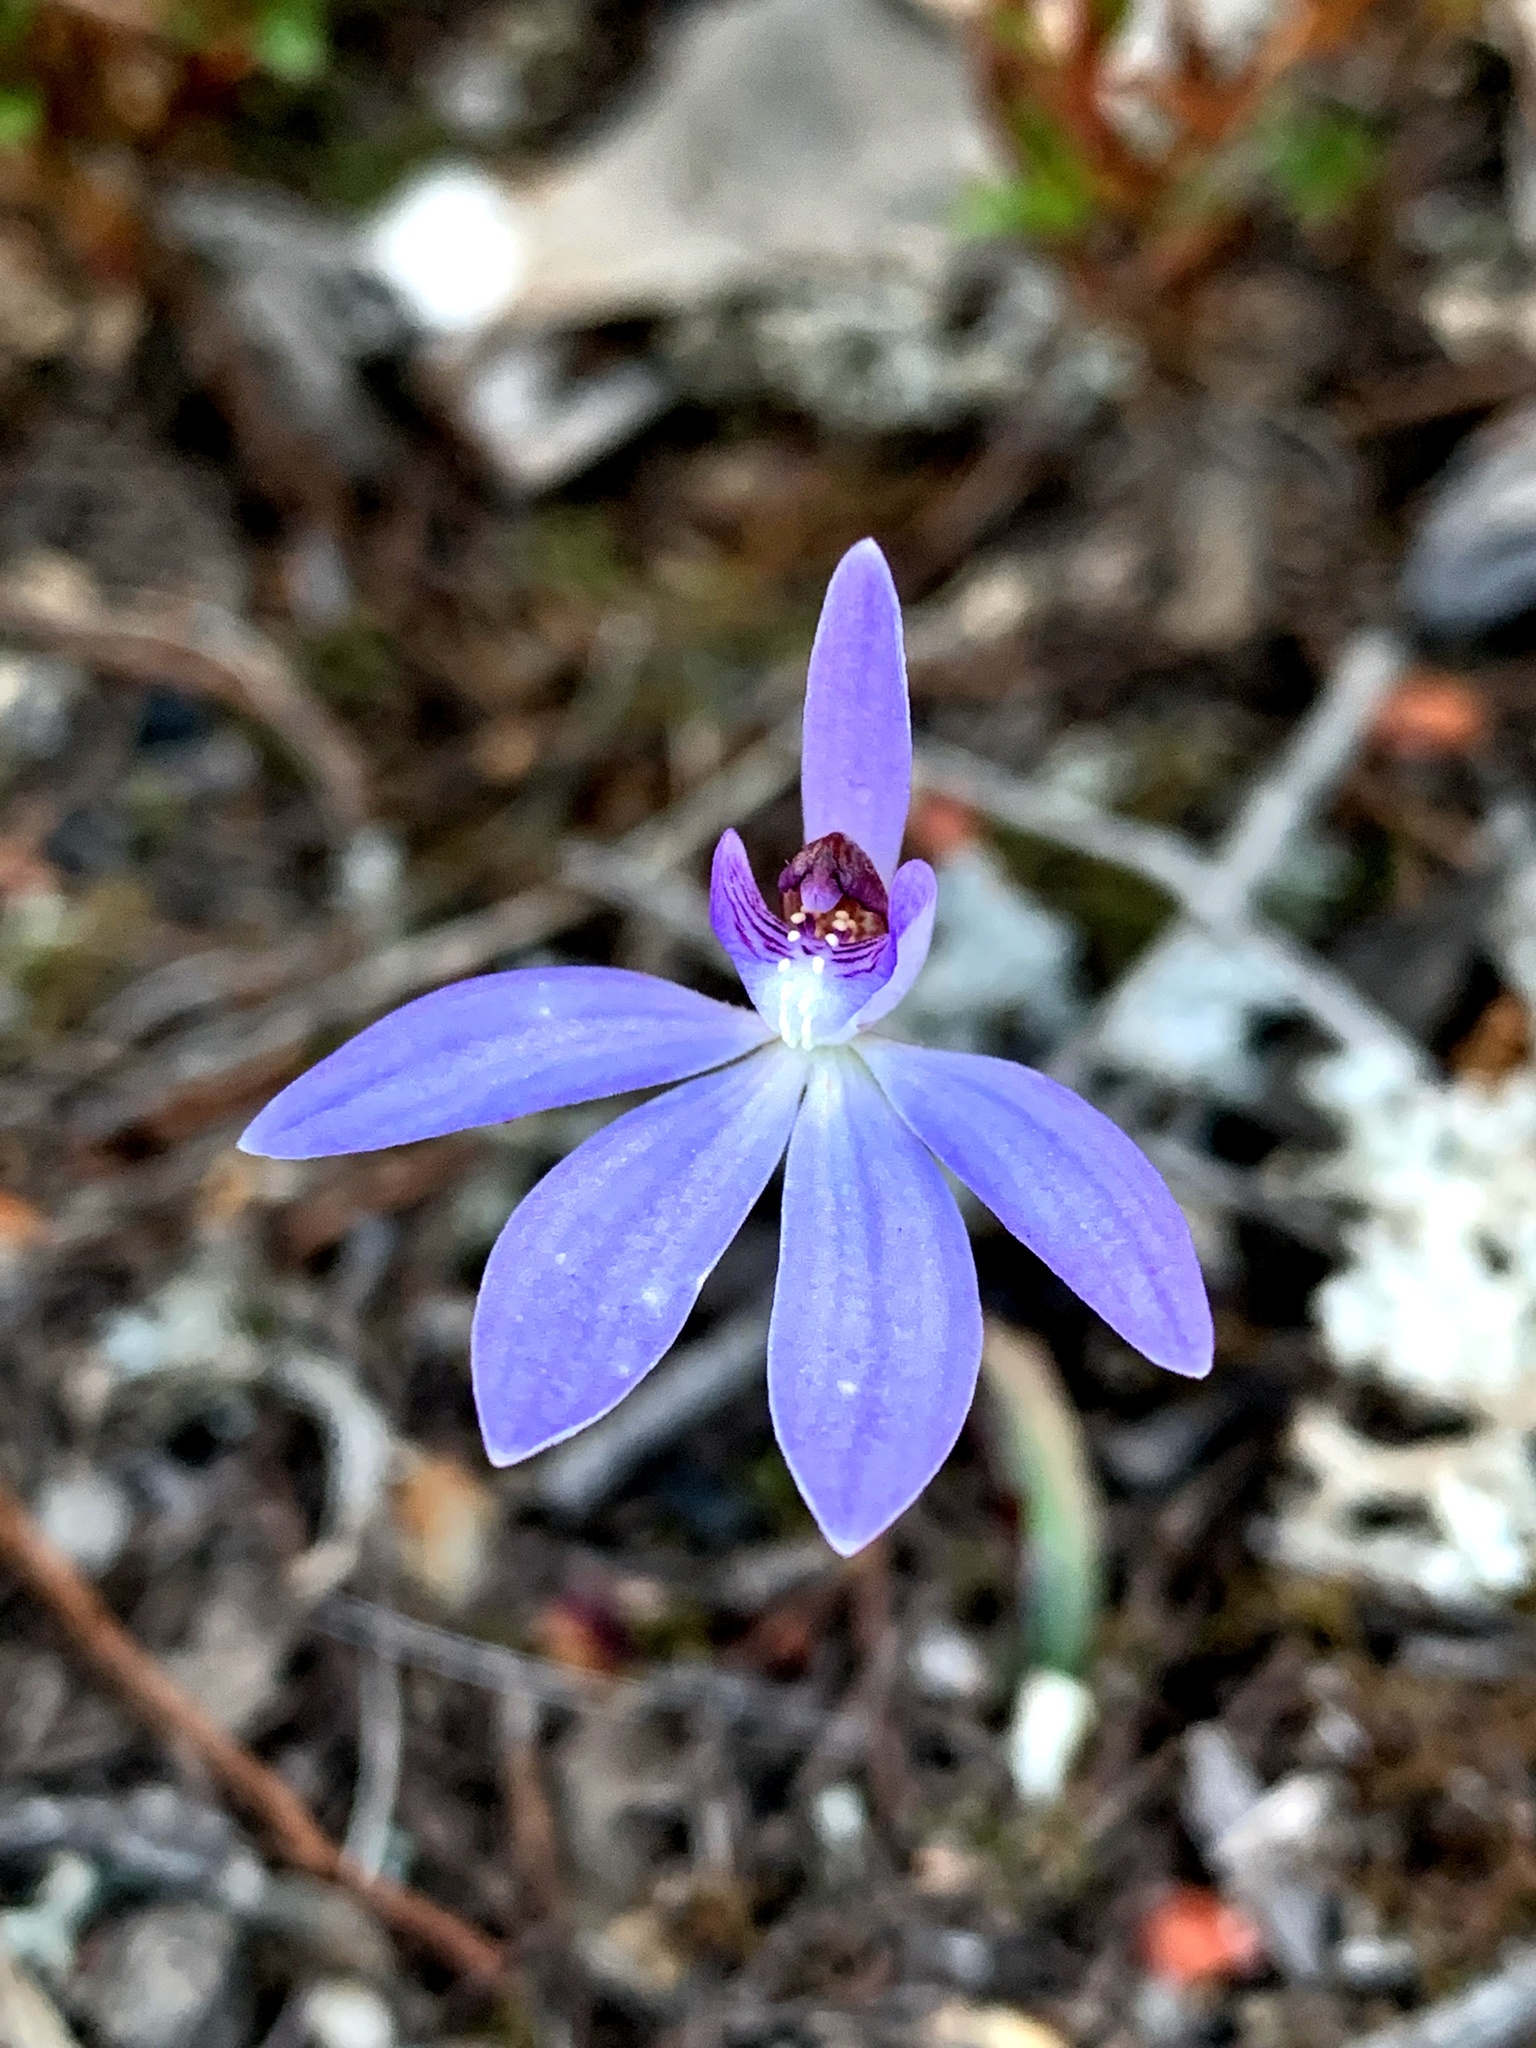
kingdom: Plantae
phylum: Tracheophyta
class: Liliopsida
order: Asparagales
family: Orchidaceae
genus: Caladenia
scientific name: Caladenia caerulea
